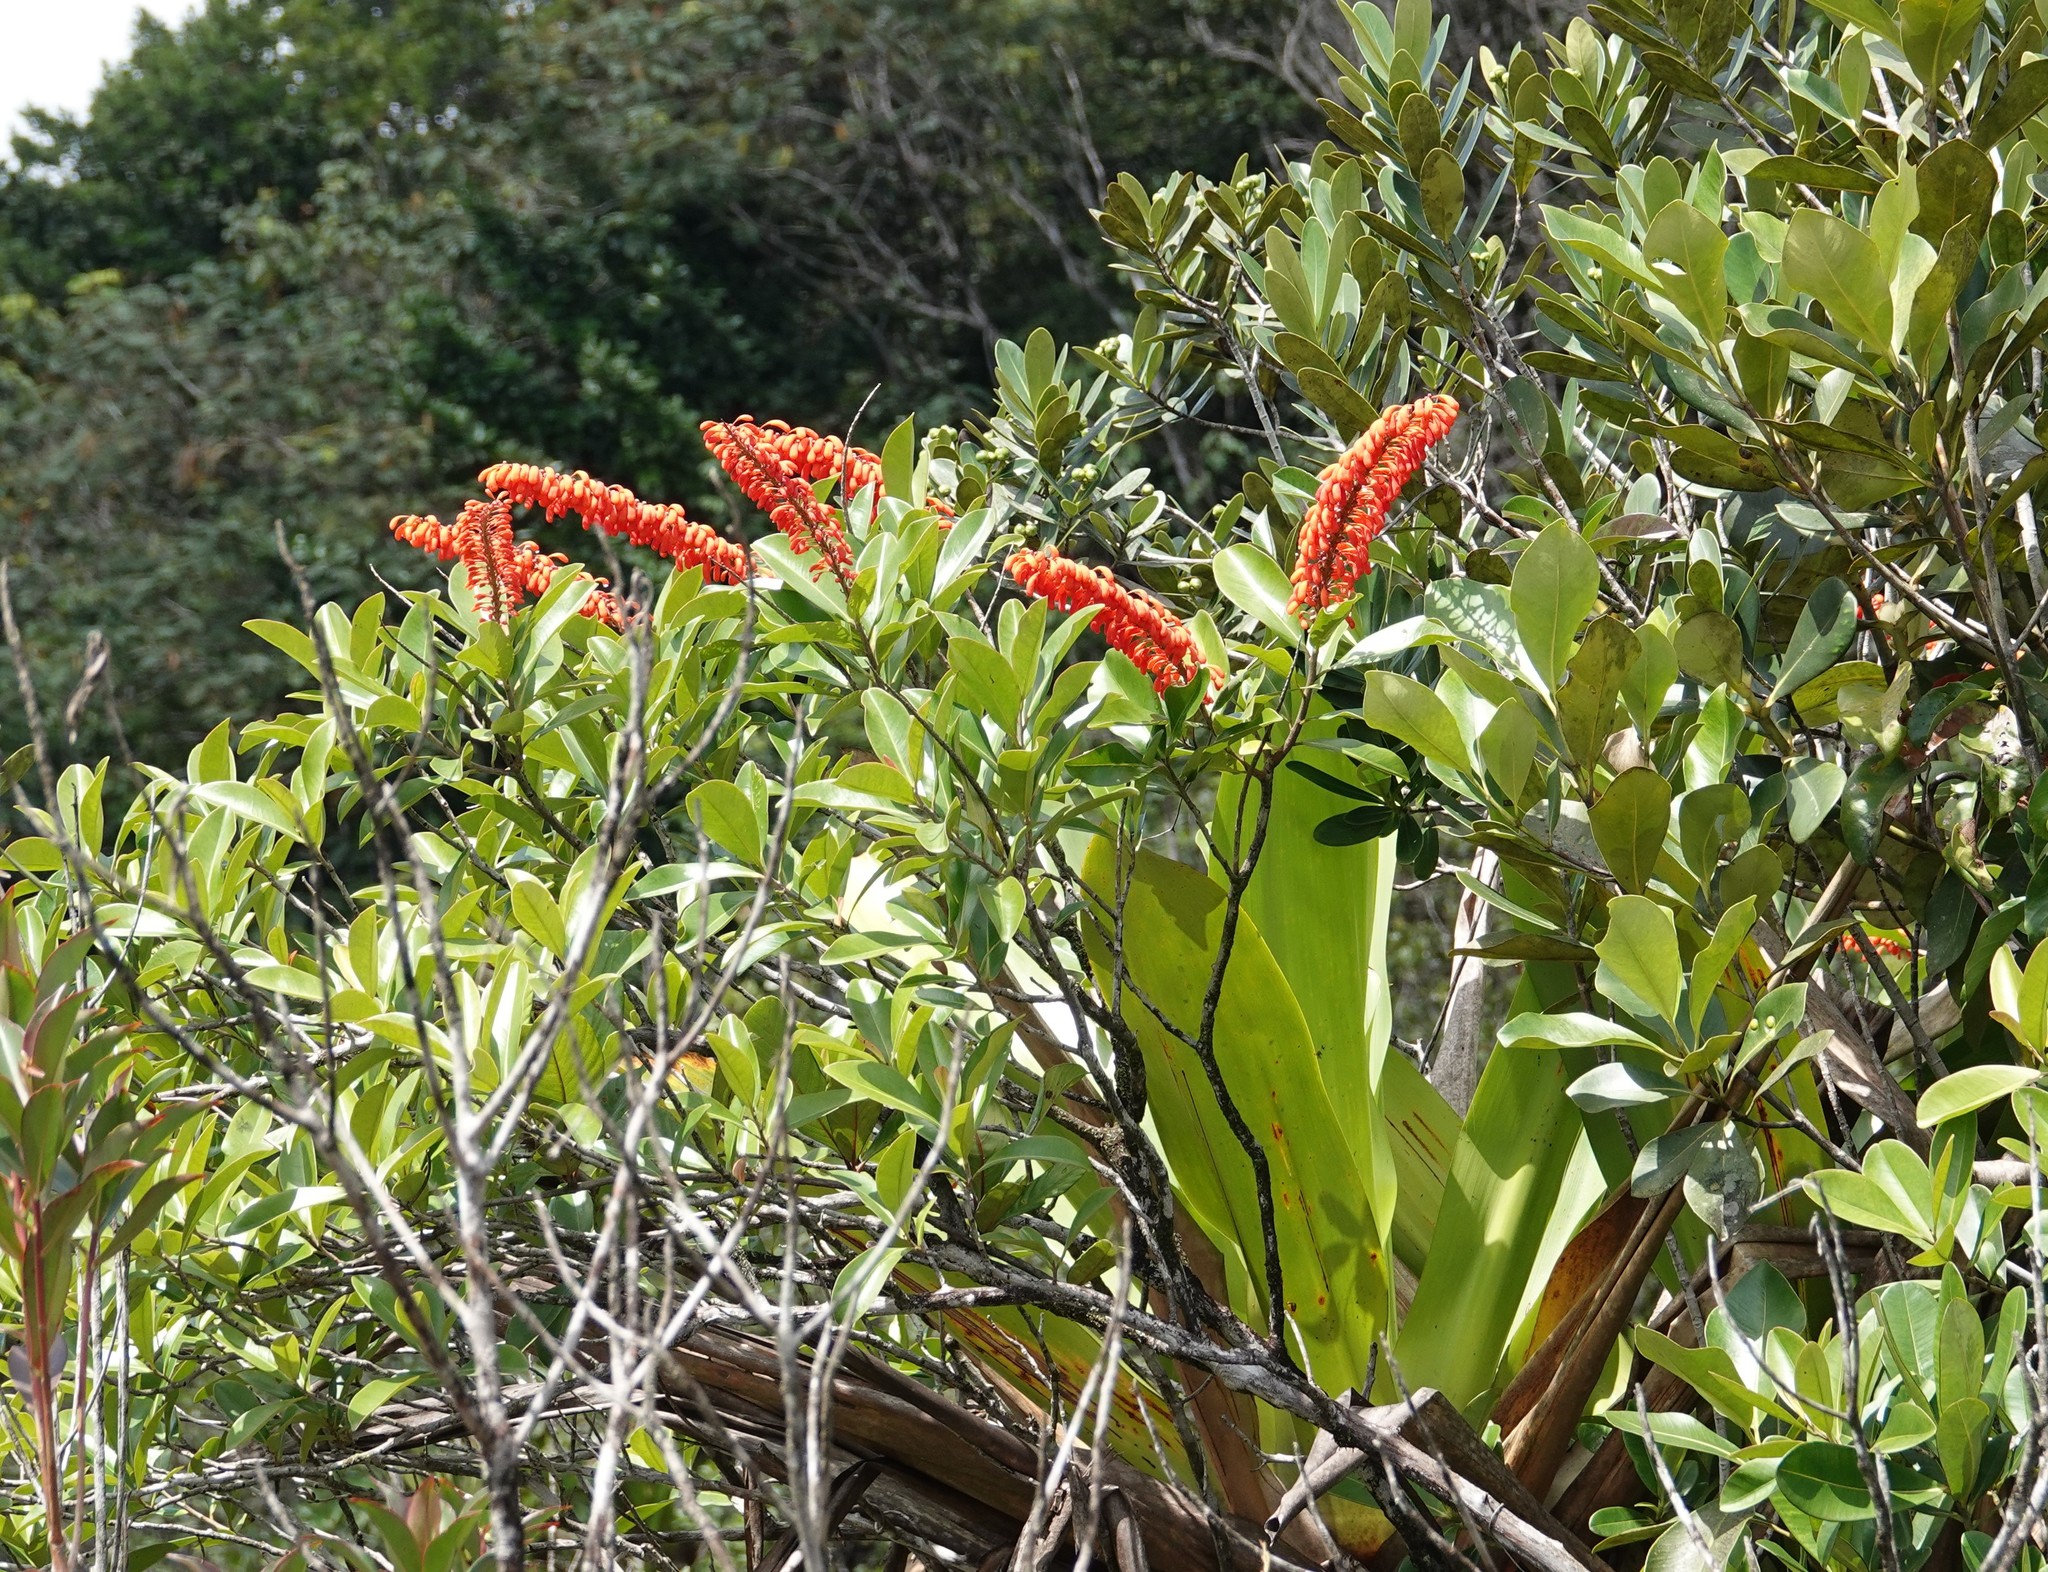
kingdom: Plantae
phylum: Tracheophyta
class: Magnoliopsida
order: Ericales
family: Marcgraviaceae
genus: Norantea
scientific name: Norantea guianensis
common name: Red hot poker vine
